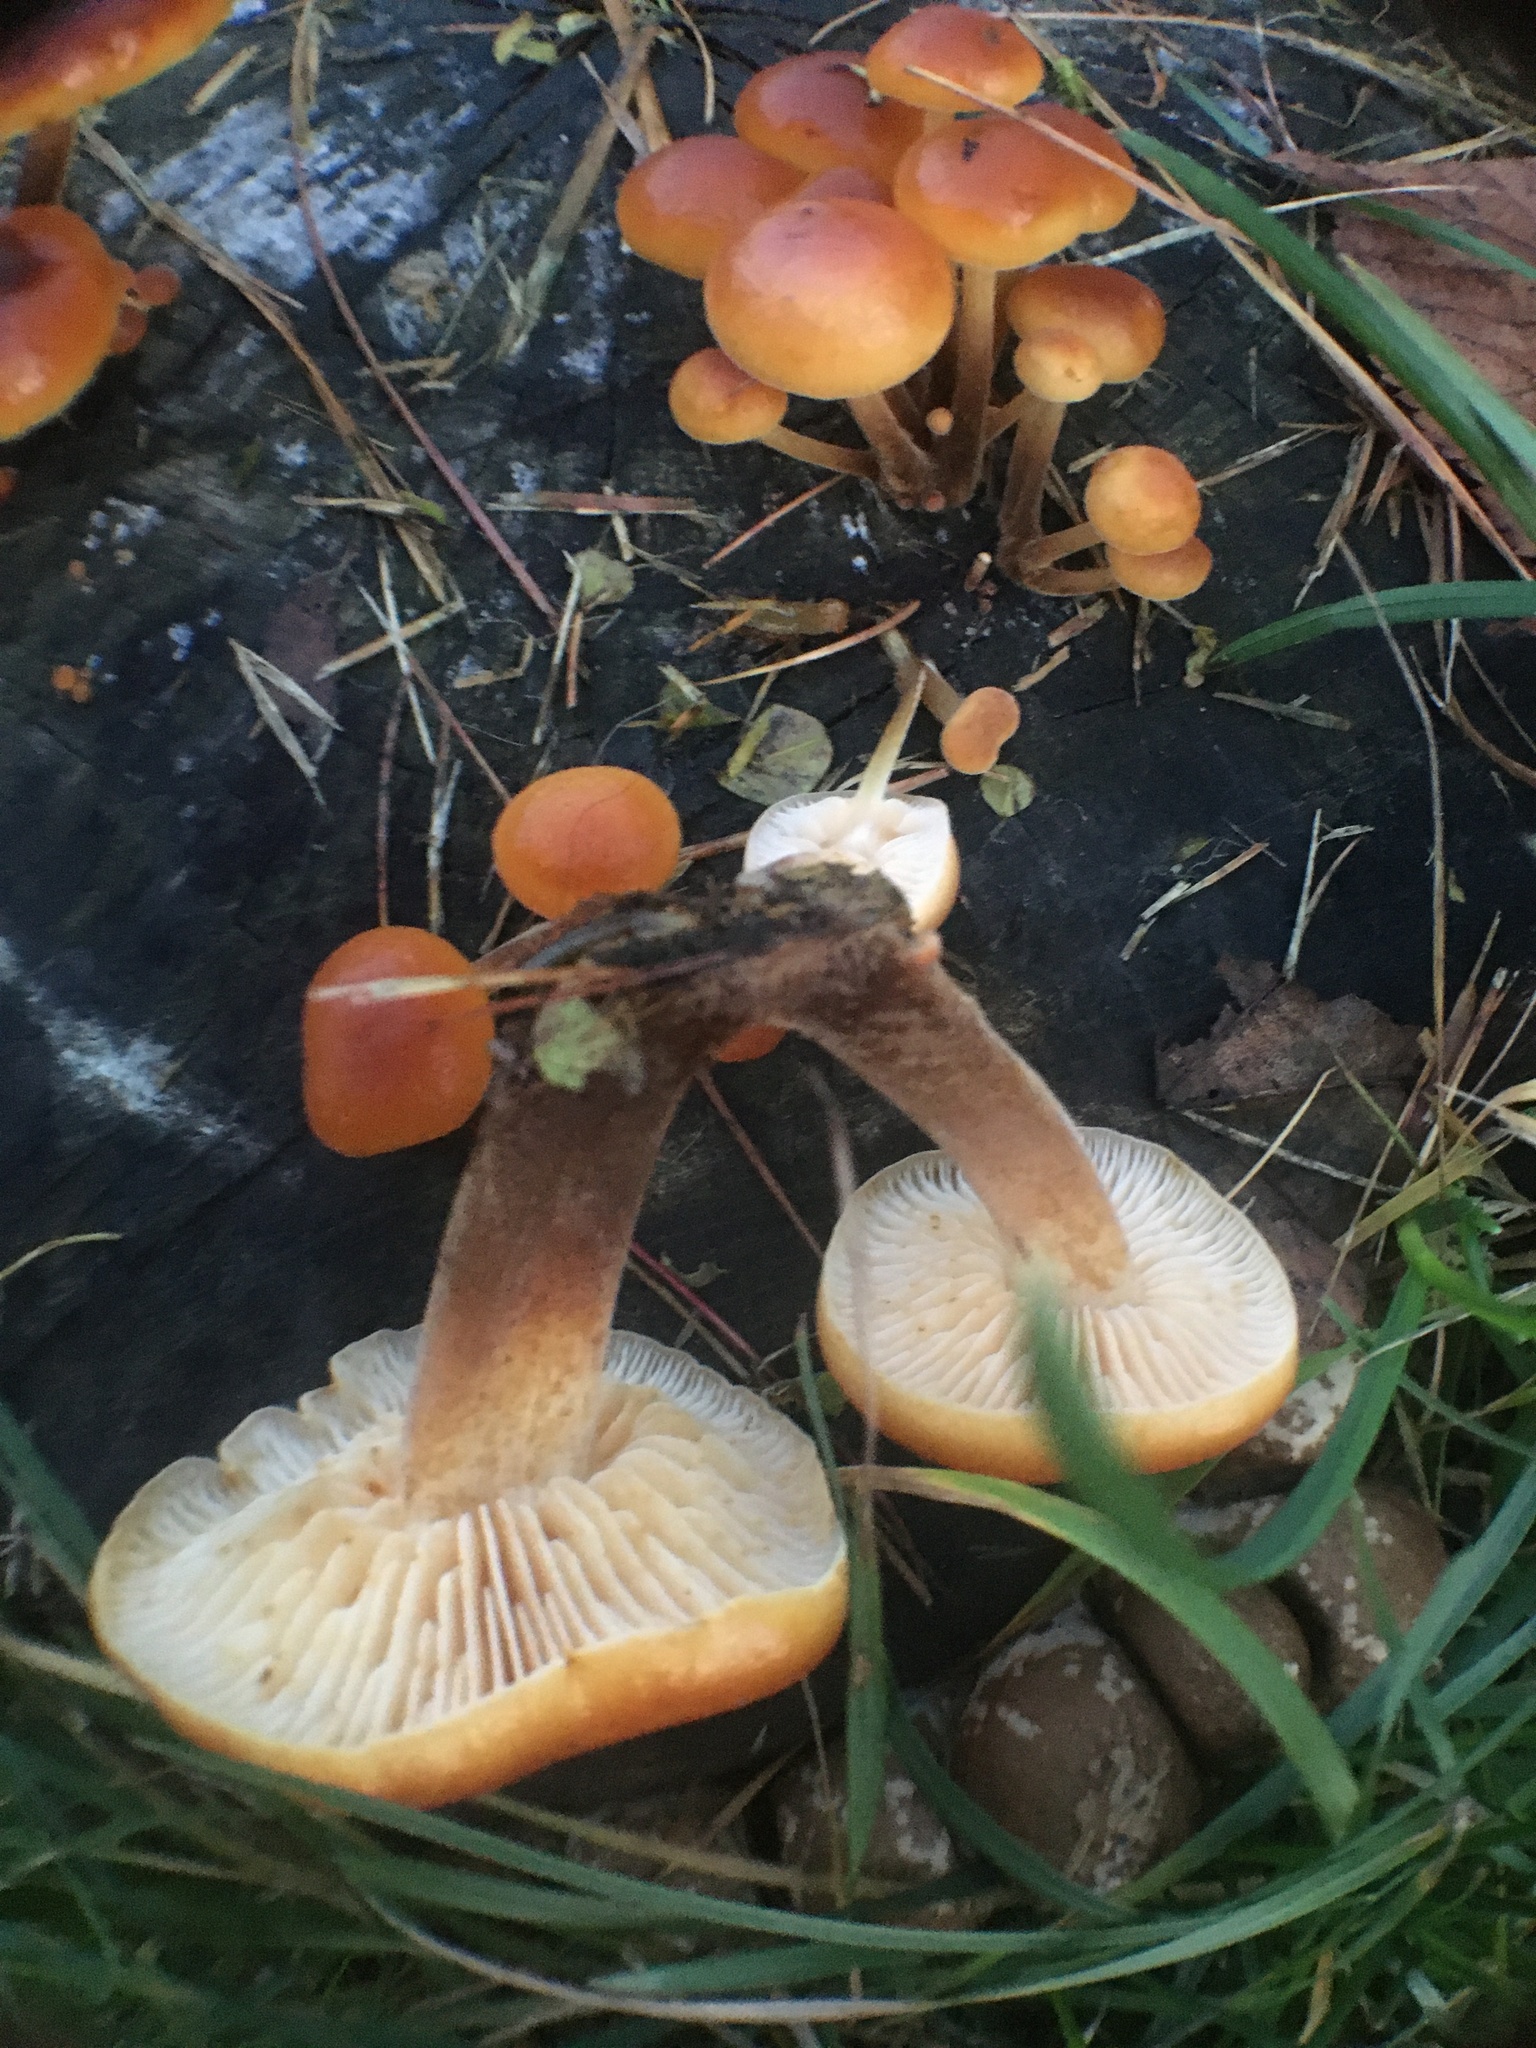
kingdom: Fungi
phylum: Basidiomycota
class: Agaricomycetes
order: Agaricales
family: Physalacriaceae
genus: Flammulina
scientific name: Flammulina
